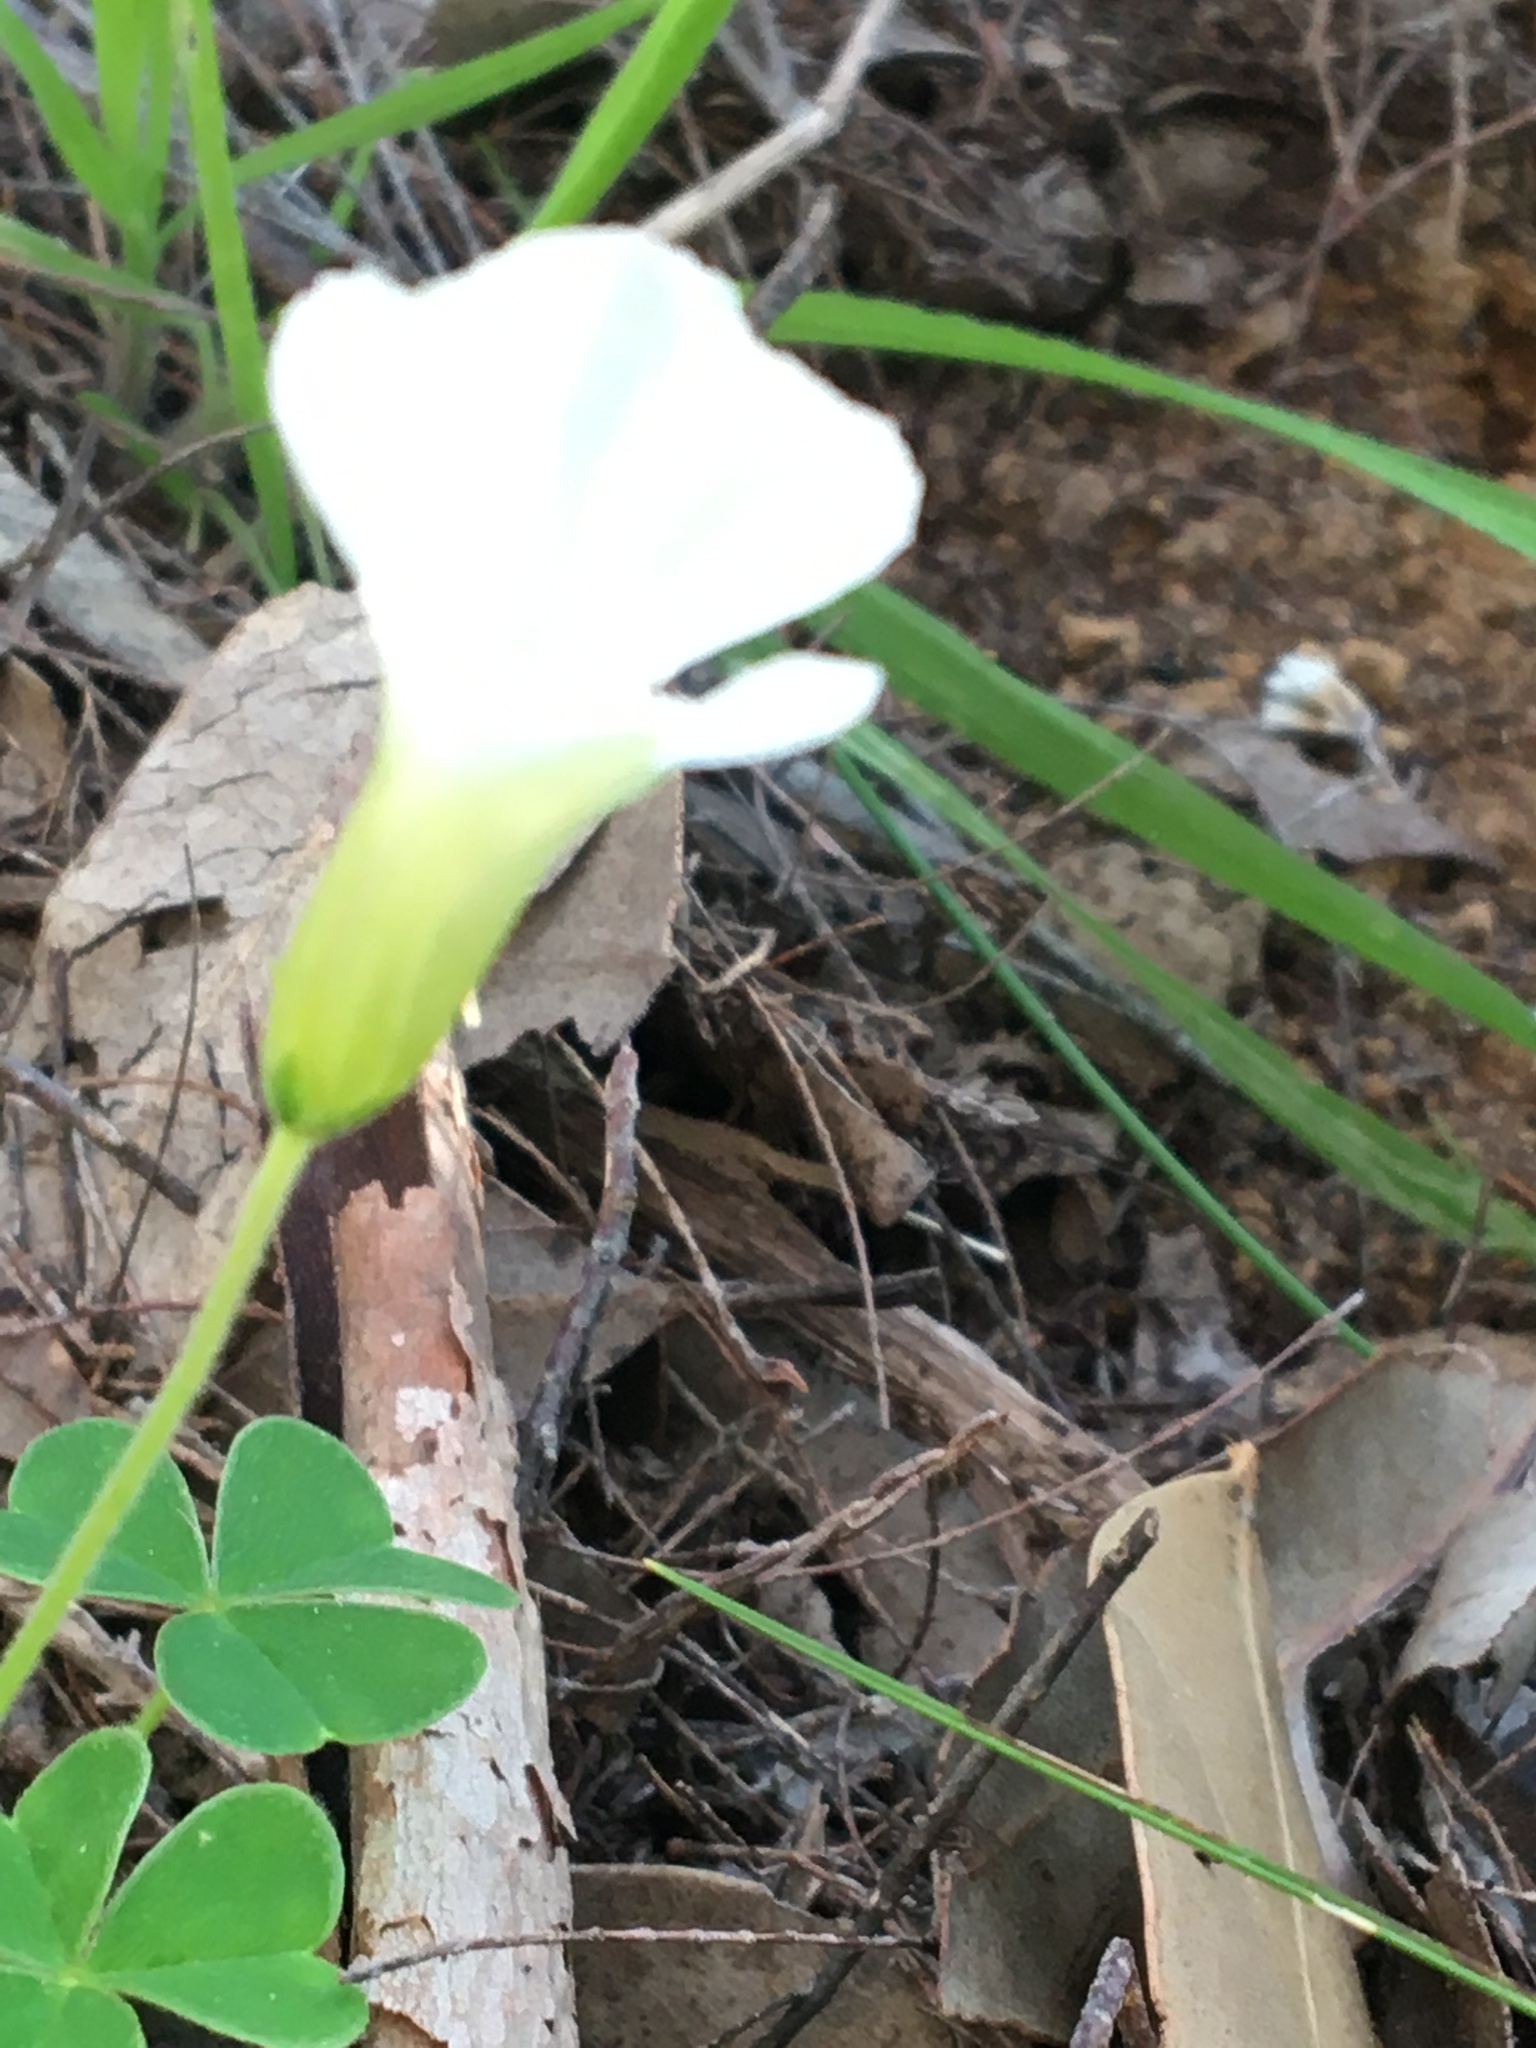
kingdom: Plantae
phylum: Tracheophyta
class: Magnoliopsida
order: Oxalidales
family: Oxalidaceae
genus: Oxalis
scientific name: Oxalis lanata
